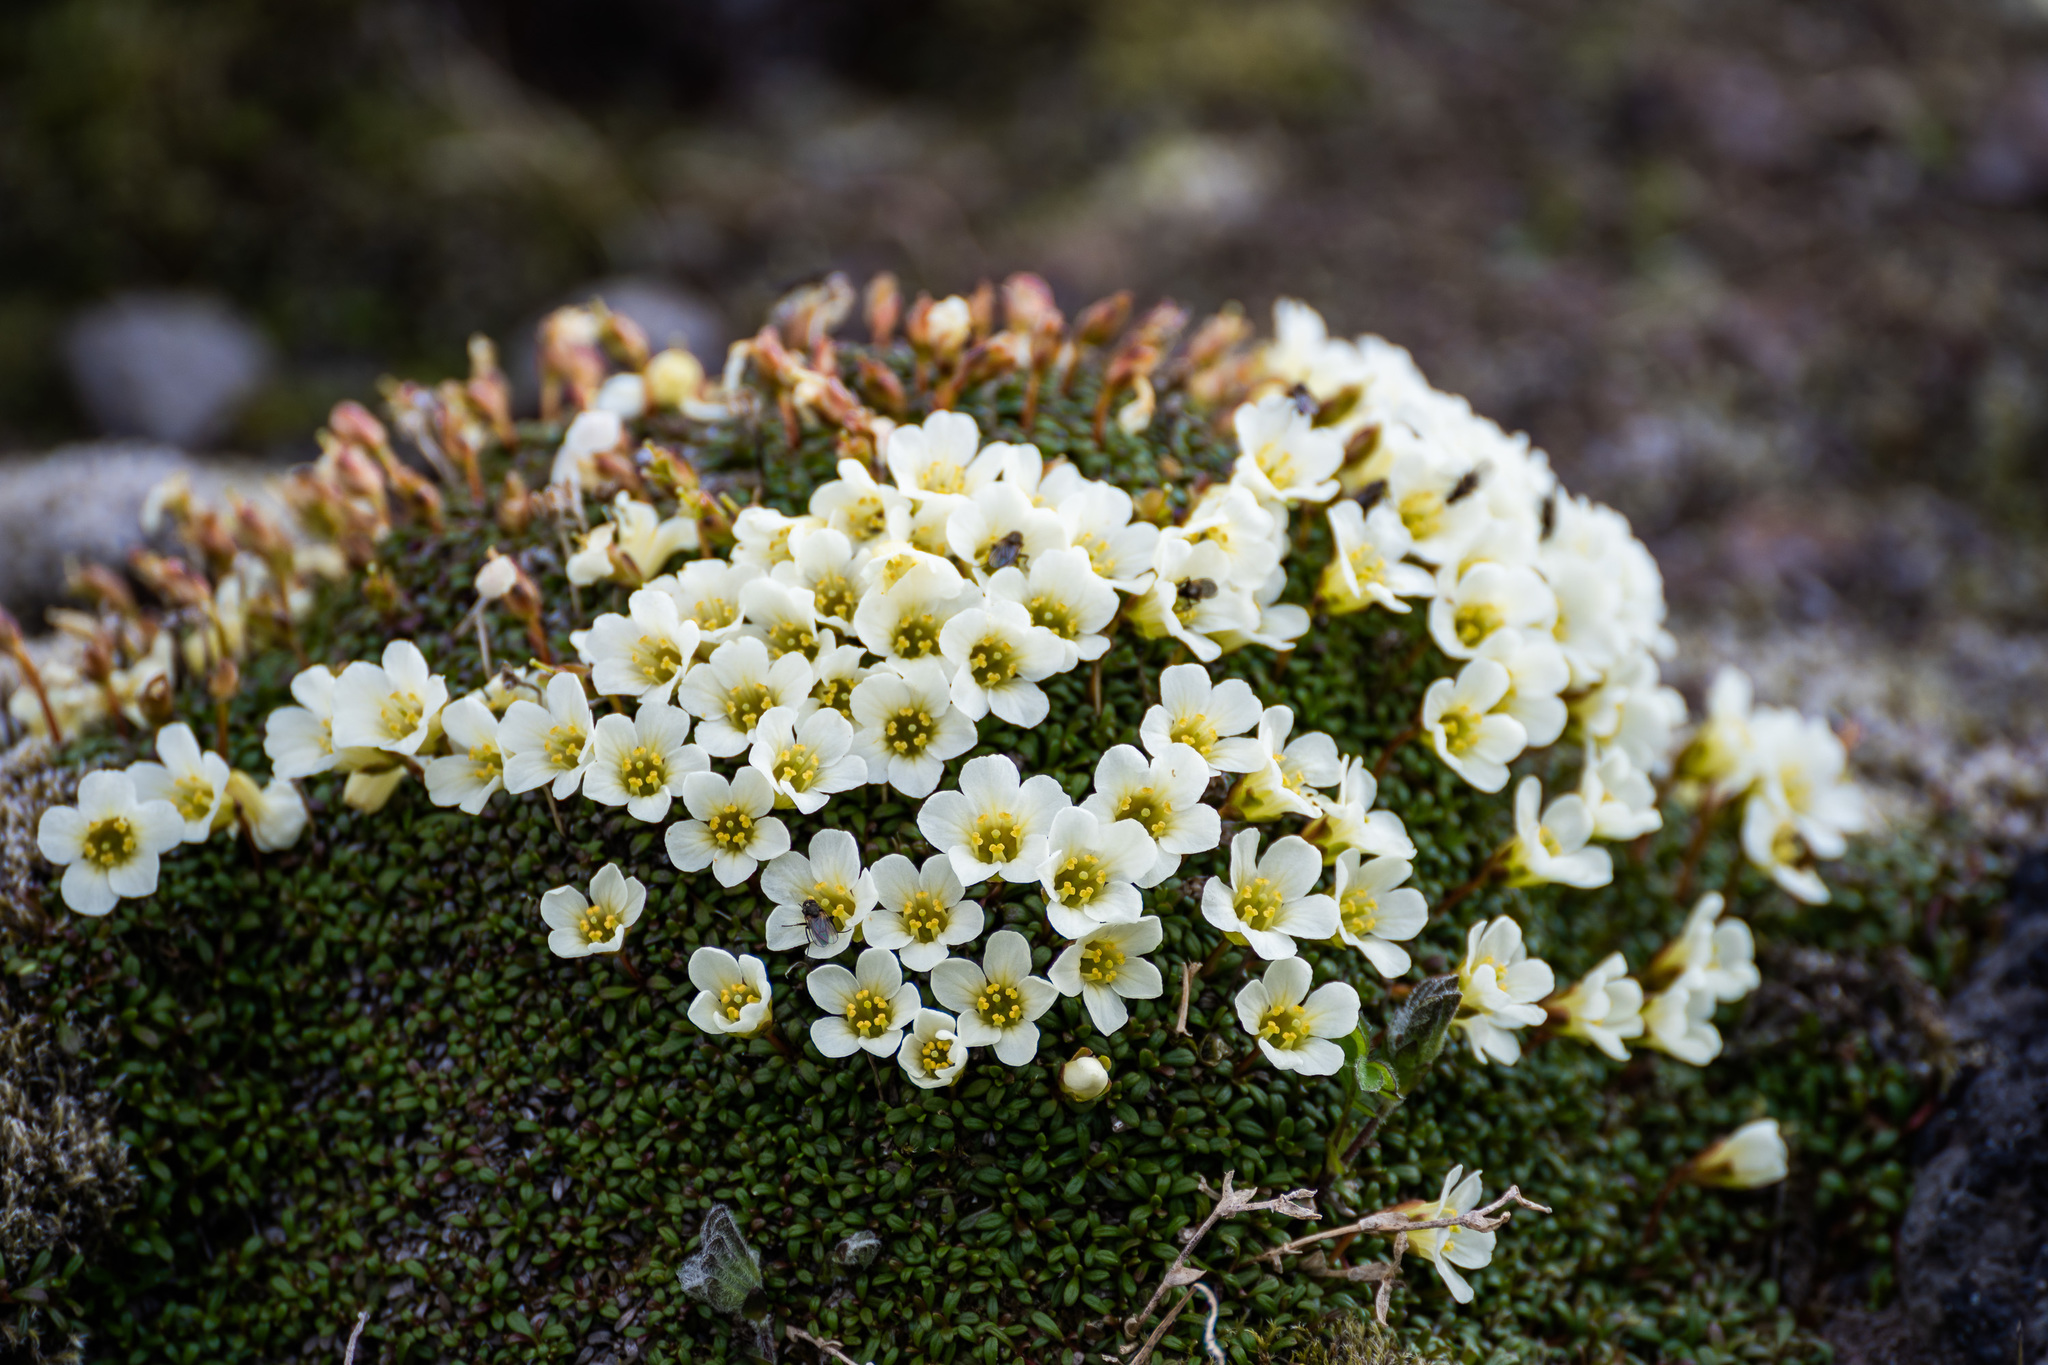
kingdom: Plantae
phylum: Tracheophyta
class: Magnoliopsida
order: Ericales
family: Diapensiaceae
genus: Diapensia
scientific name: Diapensia obovata
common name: Alaska diapensia
